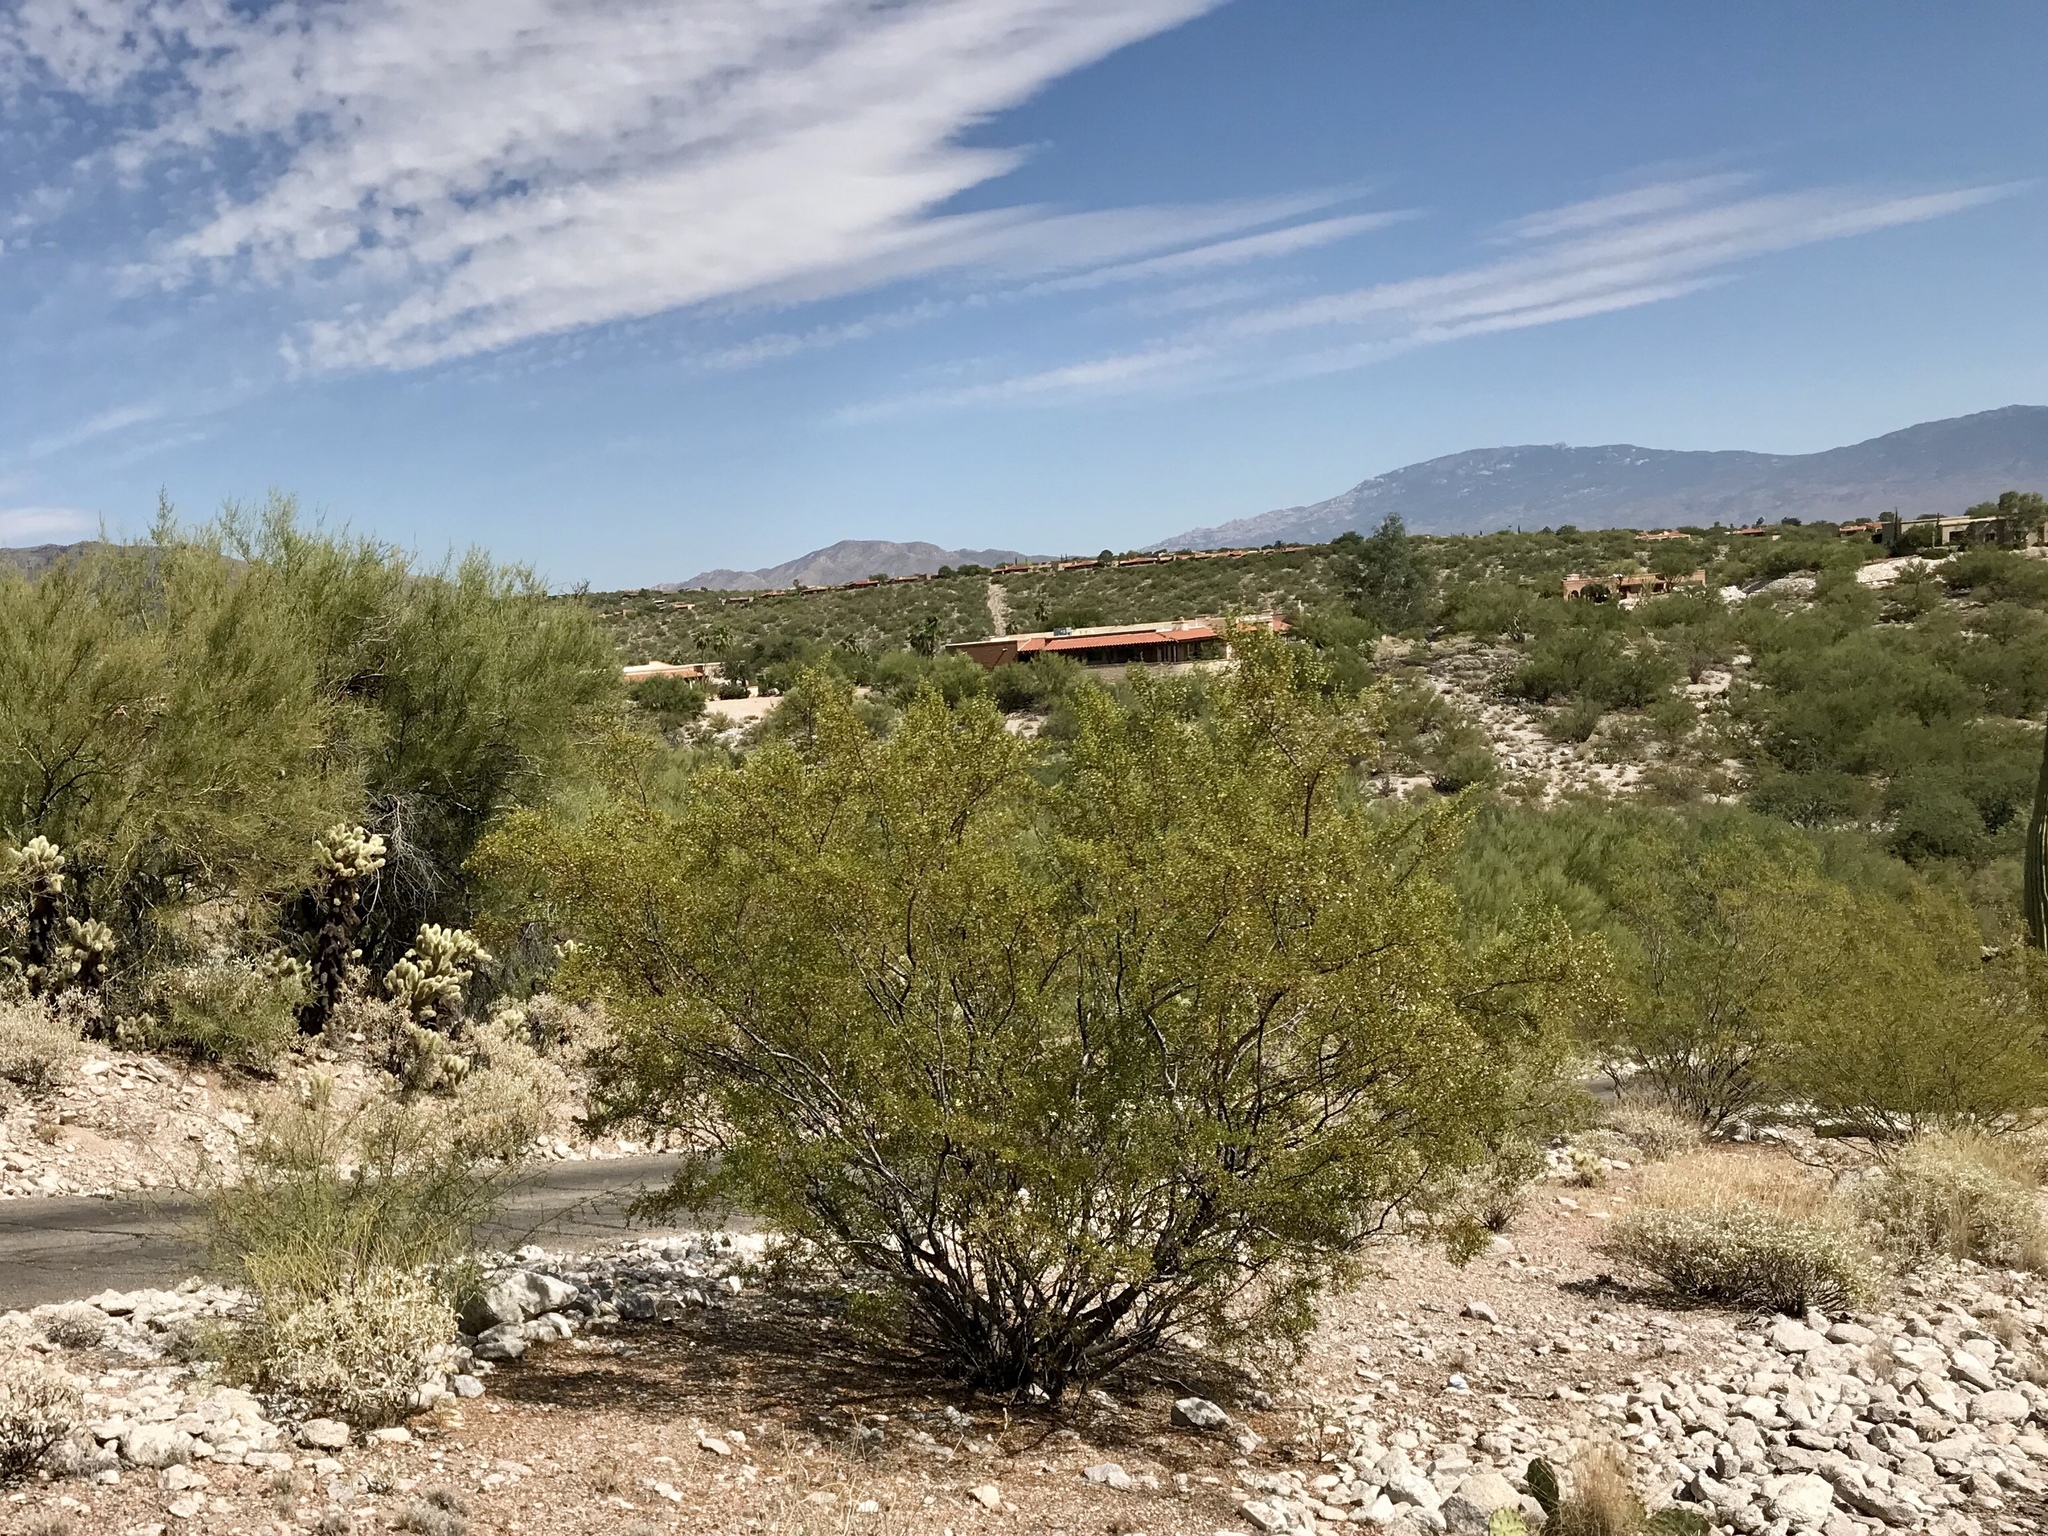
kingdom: Plantae
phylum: Tracheophyta
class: Magnoliopsida
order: Zygophyllales
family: Zygophyllaceae
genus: Larrea
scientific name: Larrea tridentata
